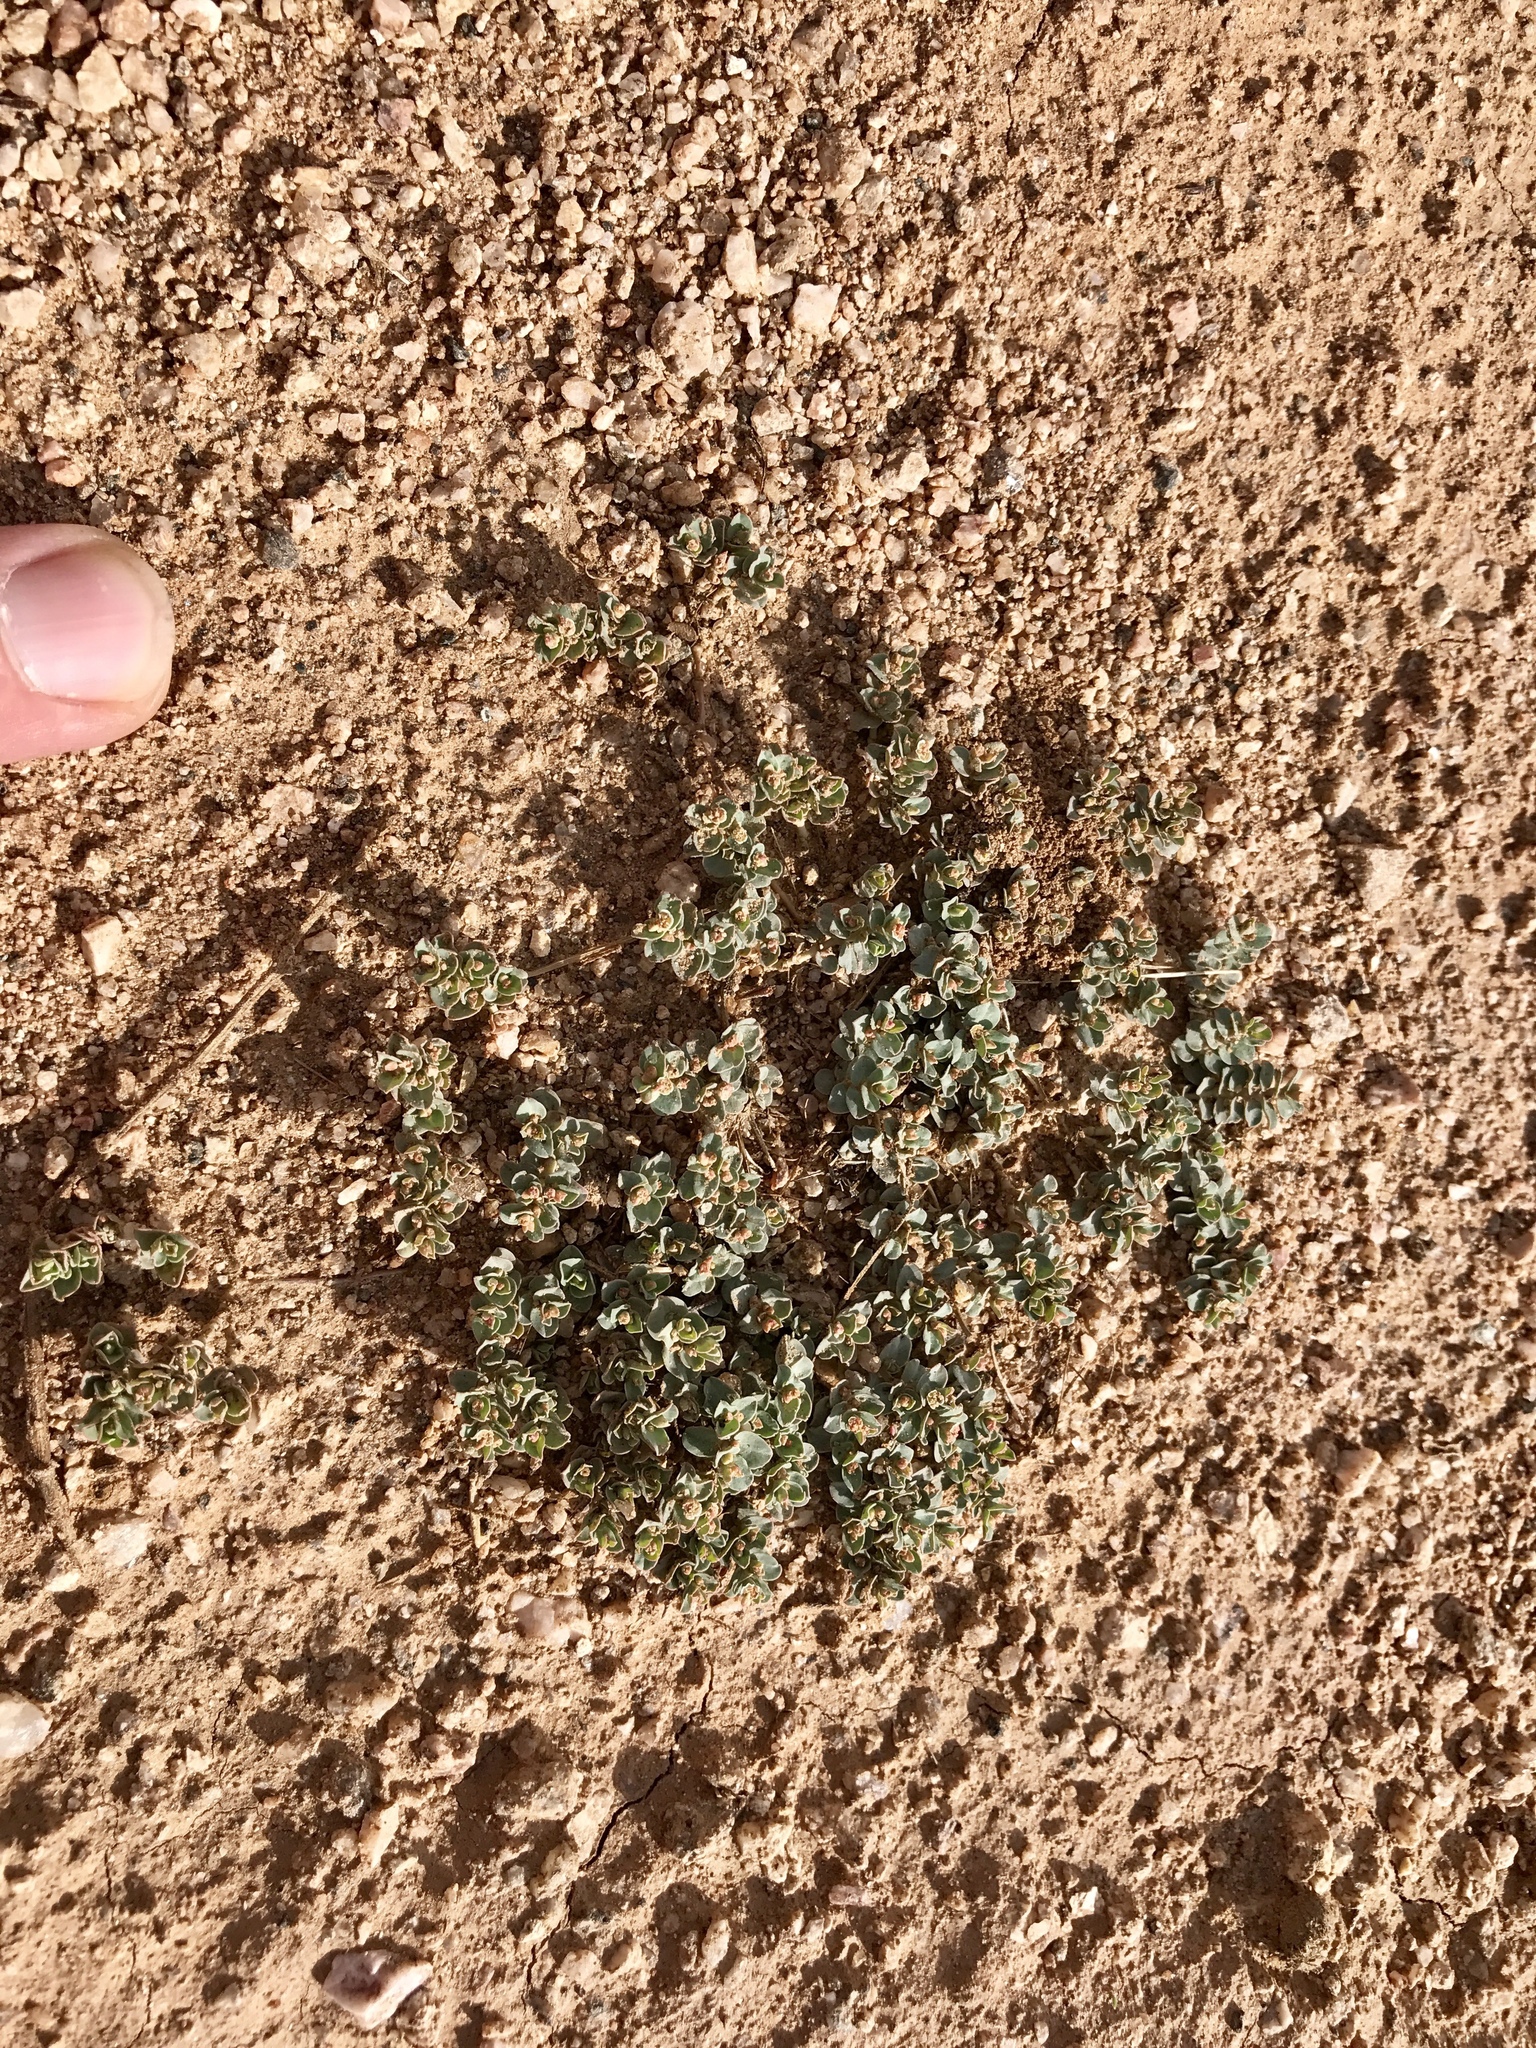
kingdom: Plantae
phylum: Tracheophyta
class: Magnoliopsida
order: Malpighiales
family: Euphorbiaceae
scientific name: Euphorbiaceae
